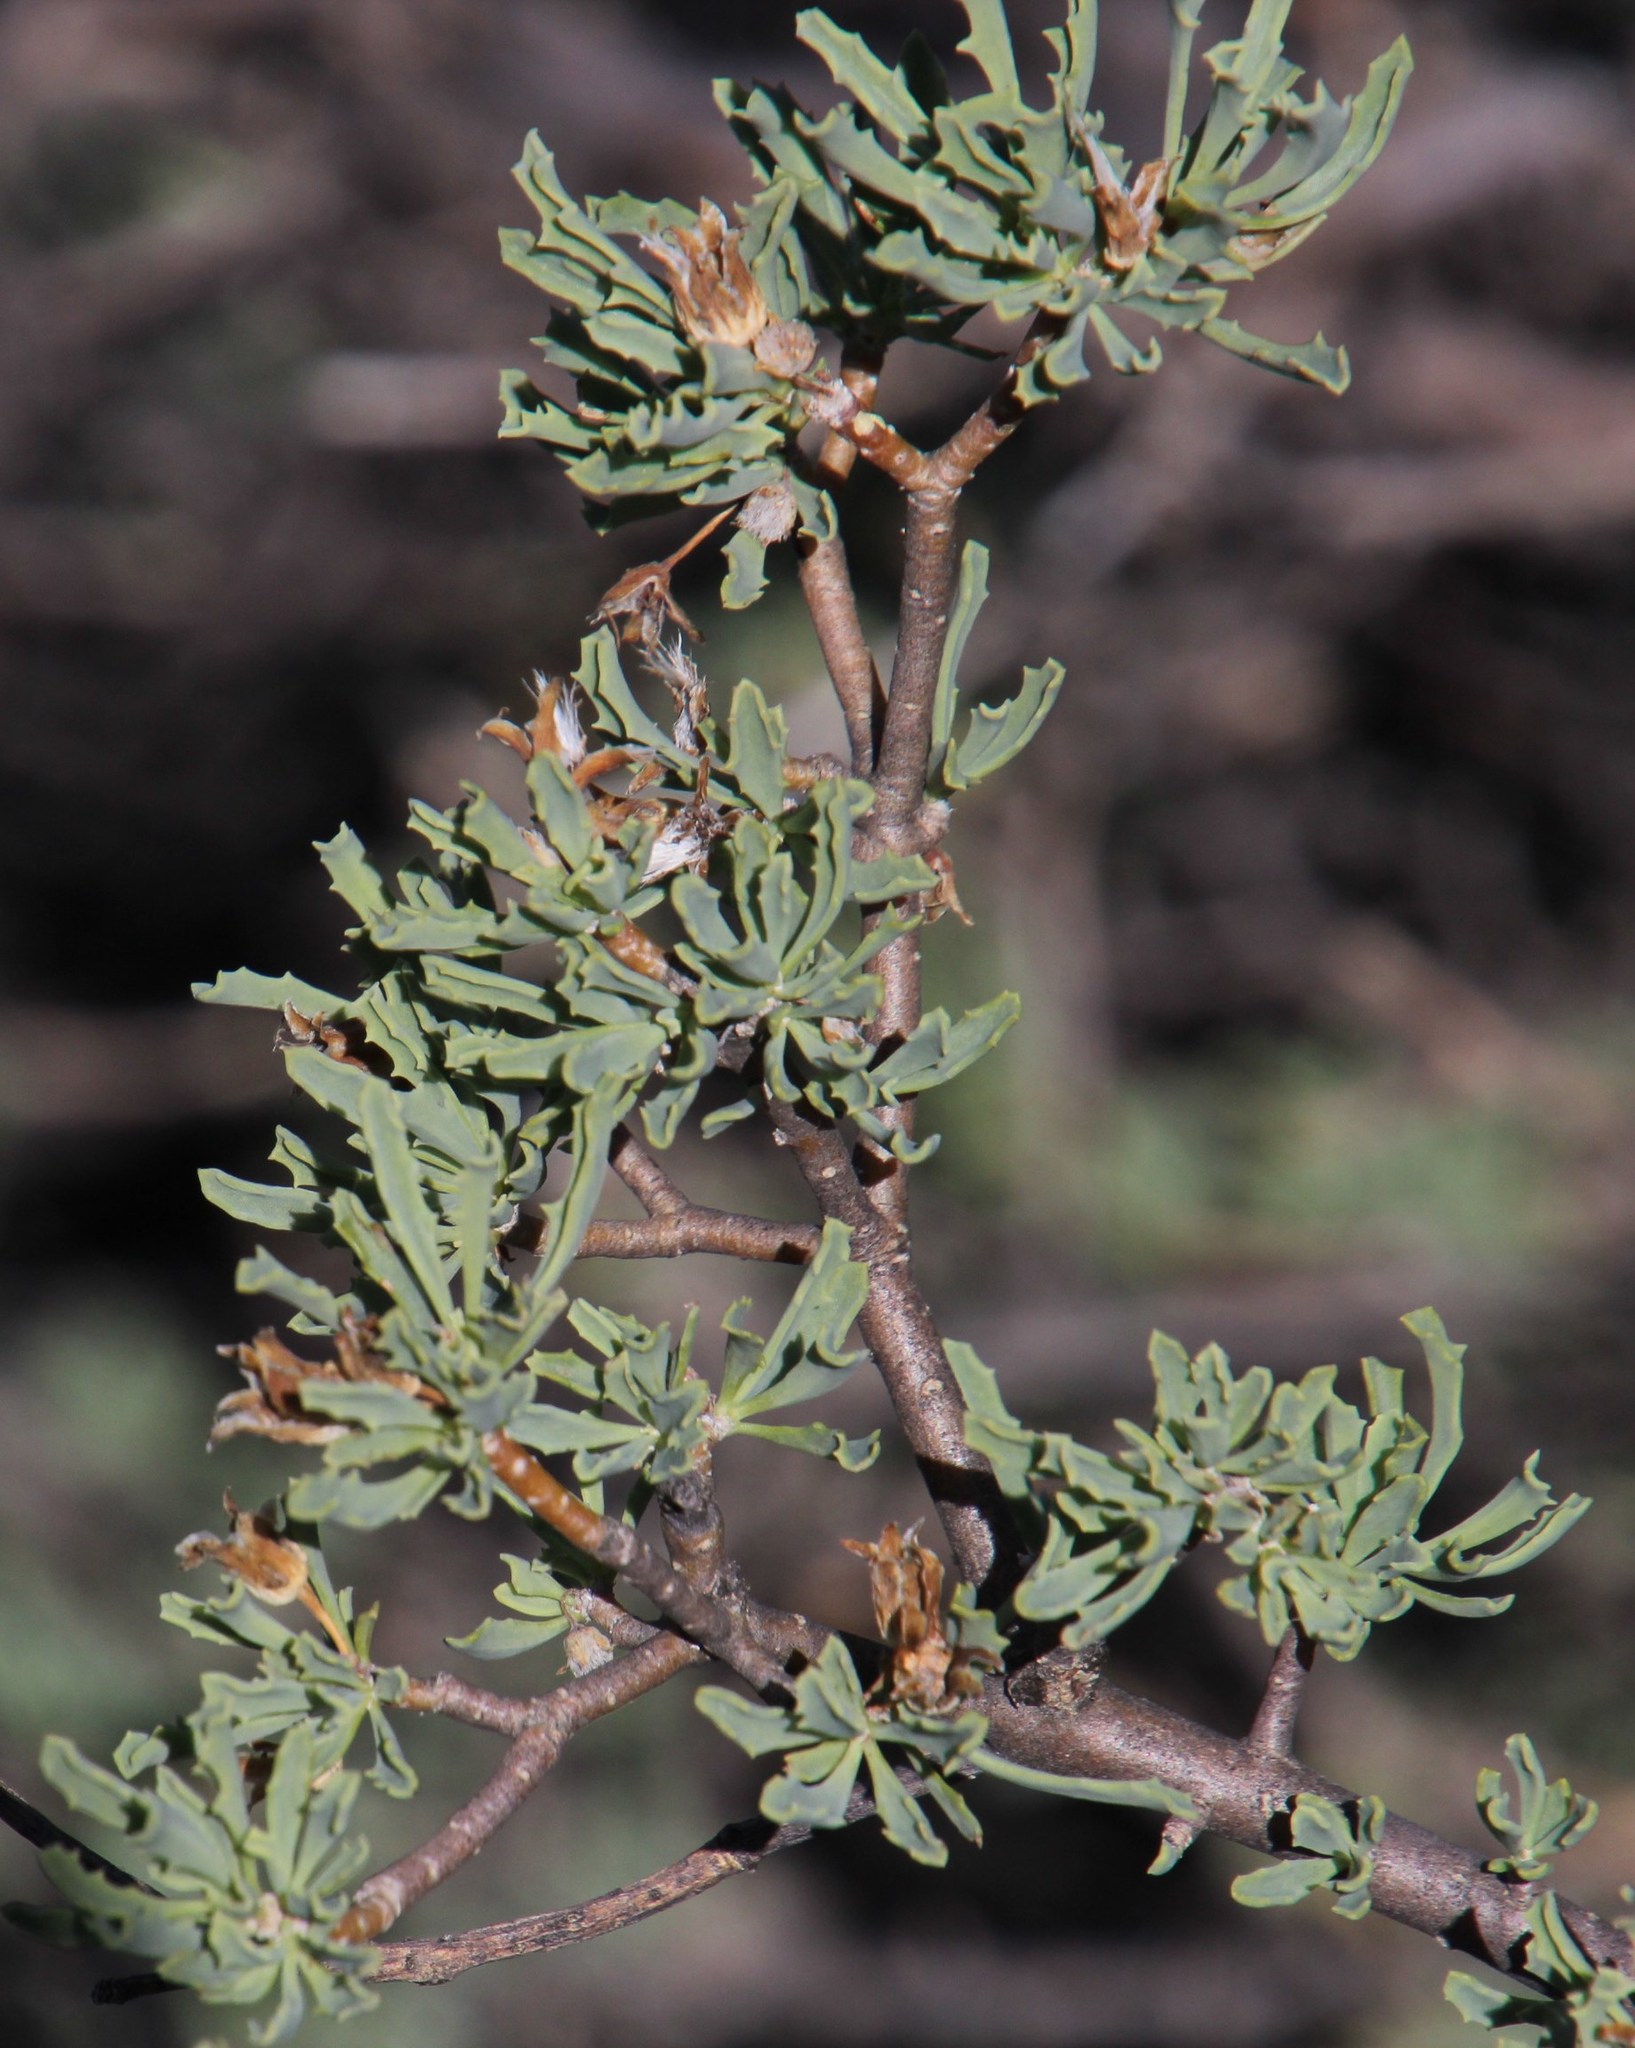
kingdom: Plantae
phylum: Tracheophyta
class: Magnoliopsida
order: Asterales
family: Asteraceae
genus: Othonna
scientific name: Othonna divaricata
